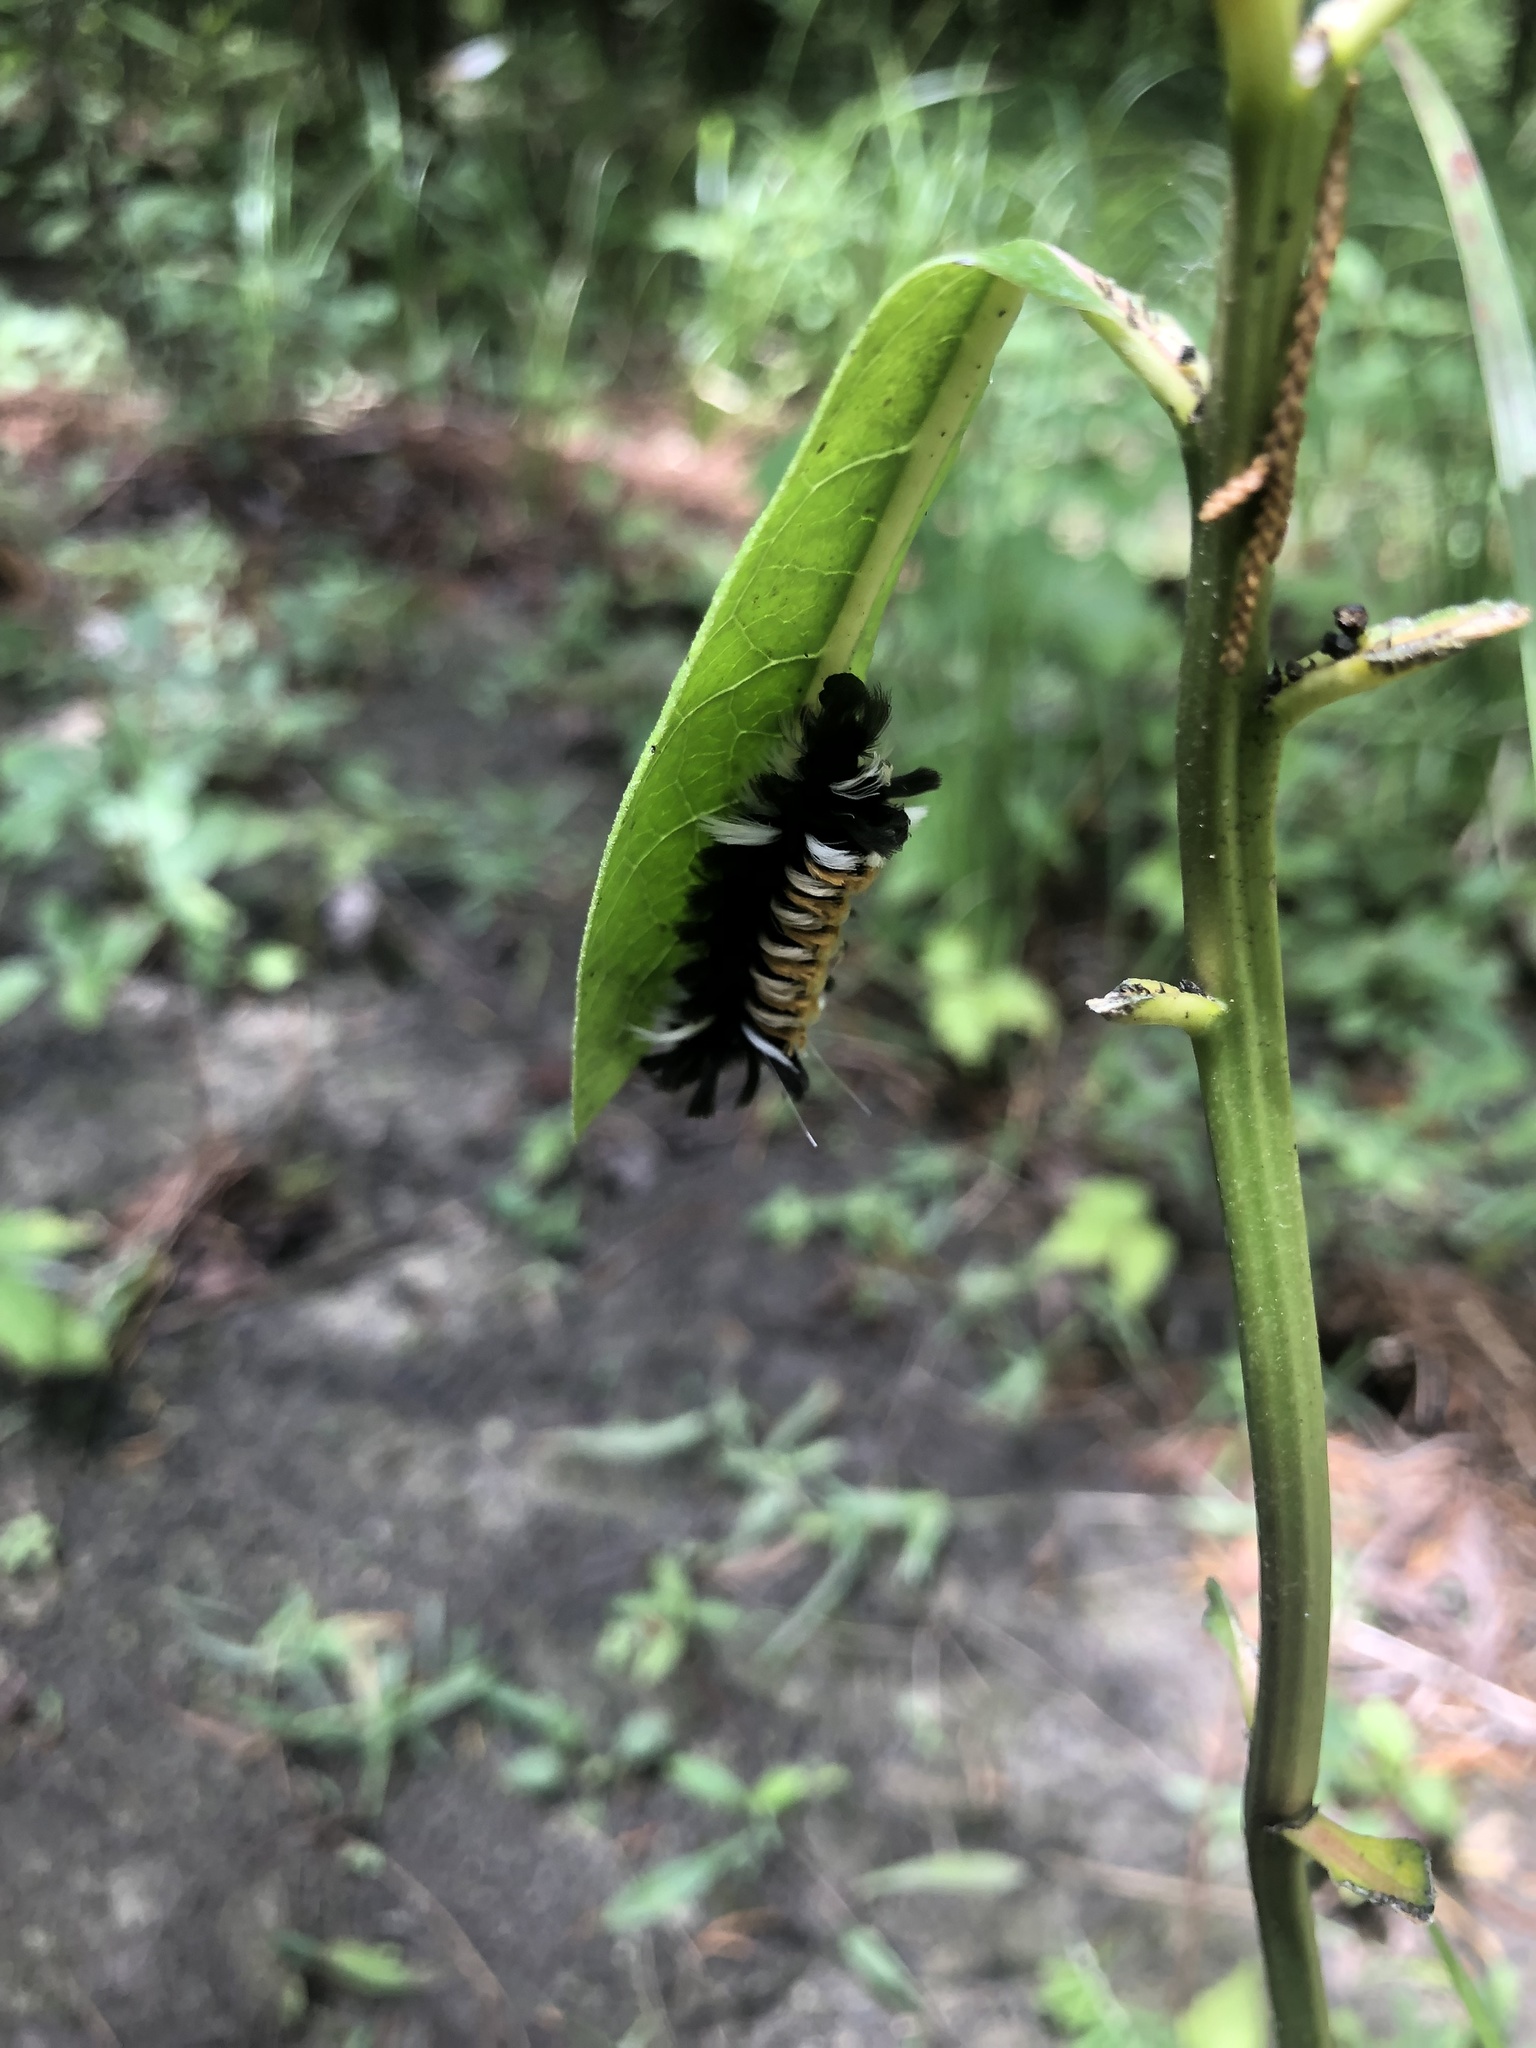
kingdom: Animalia
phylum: Arthropoda
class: Insecta
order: Lepidoptera
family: Erebidae
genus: Euchaetes
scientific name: Euchaetes egle
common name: Milkweed tussock moth
